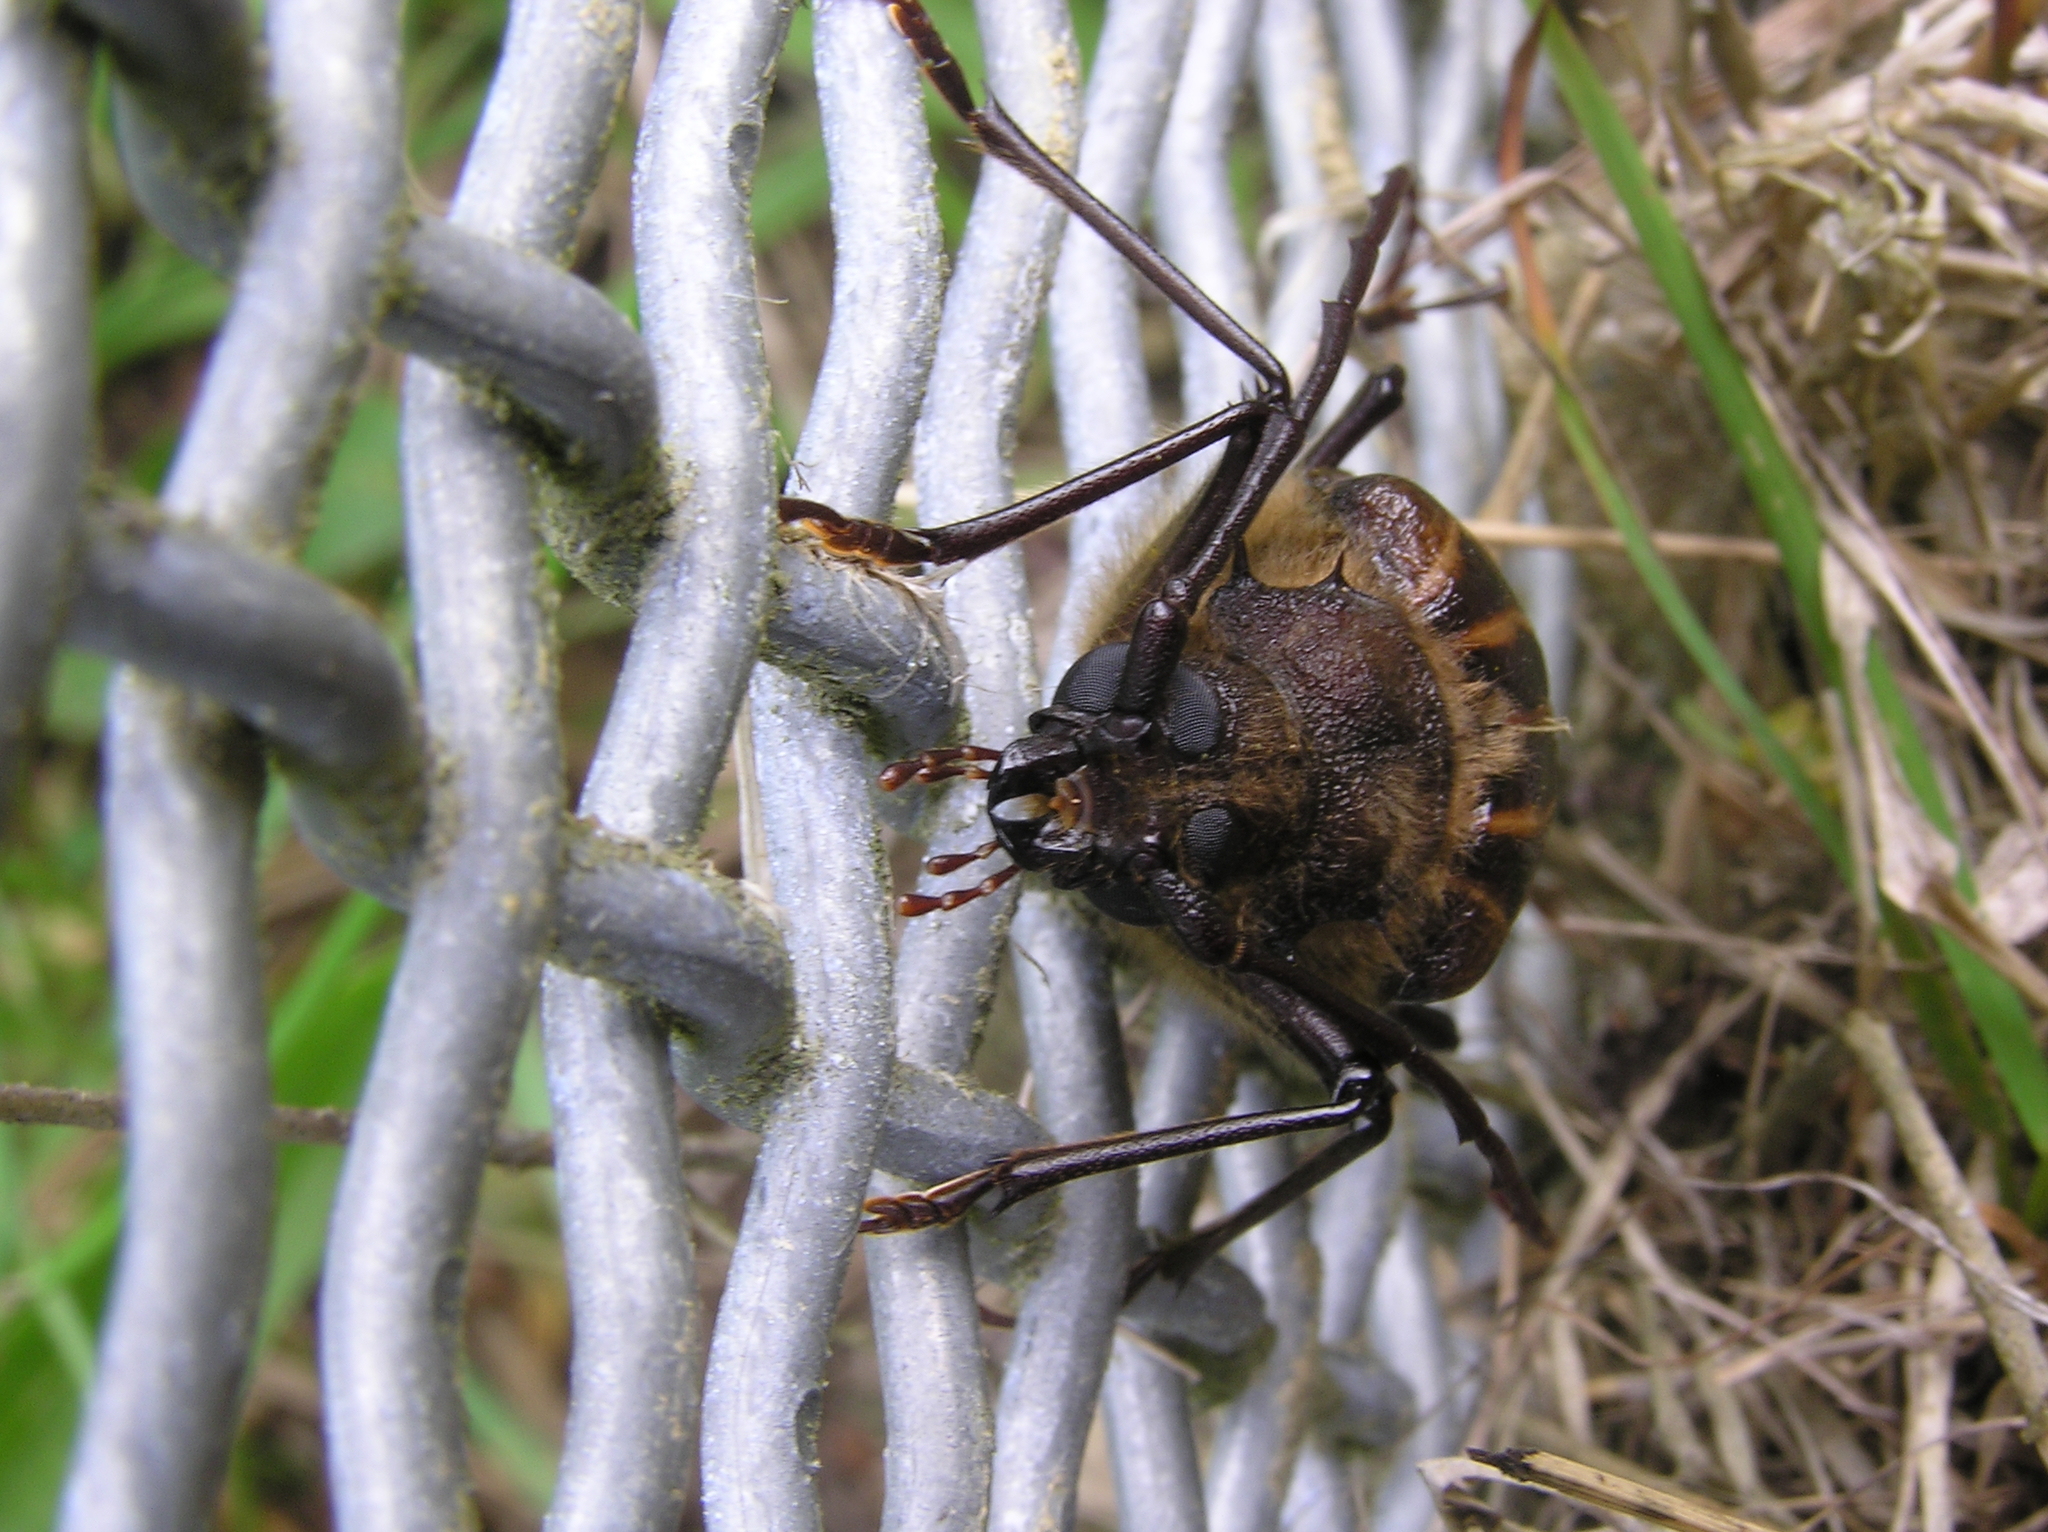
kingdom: Animalia
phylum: Arthropoda
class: Insecta
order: Coleoptera
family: Cerambycidae
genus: Prionoplus
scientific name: Prionoplus reticularis
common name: Huhu beetle
